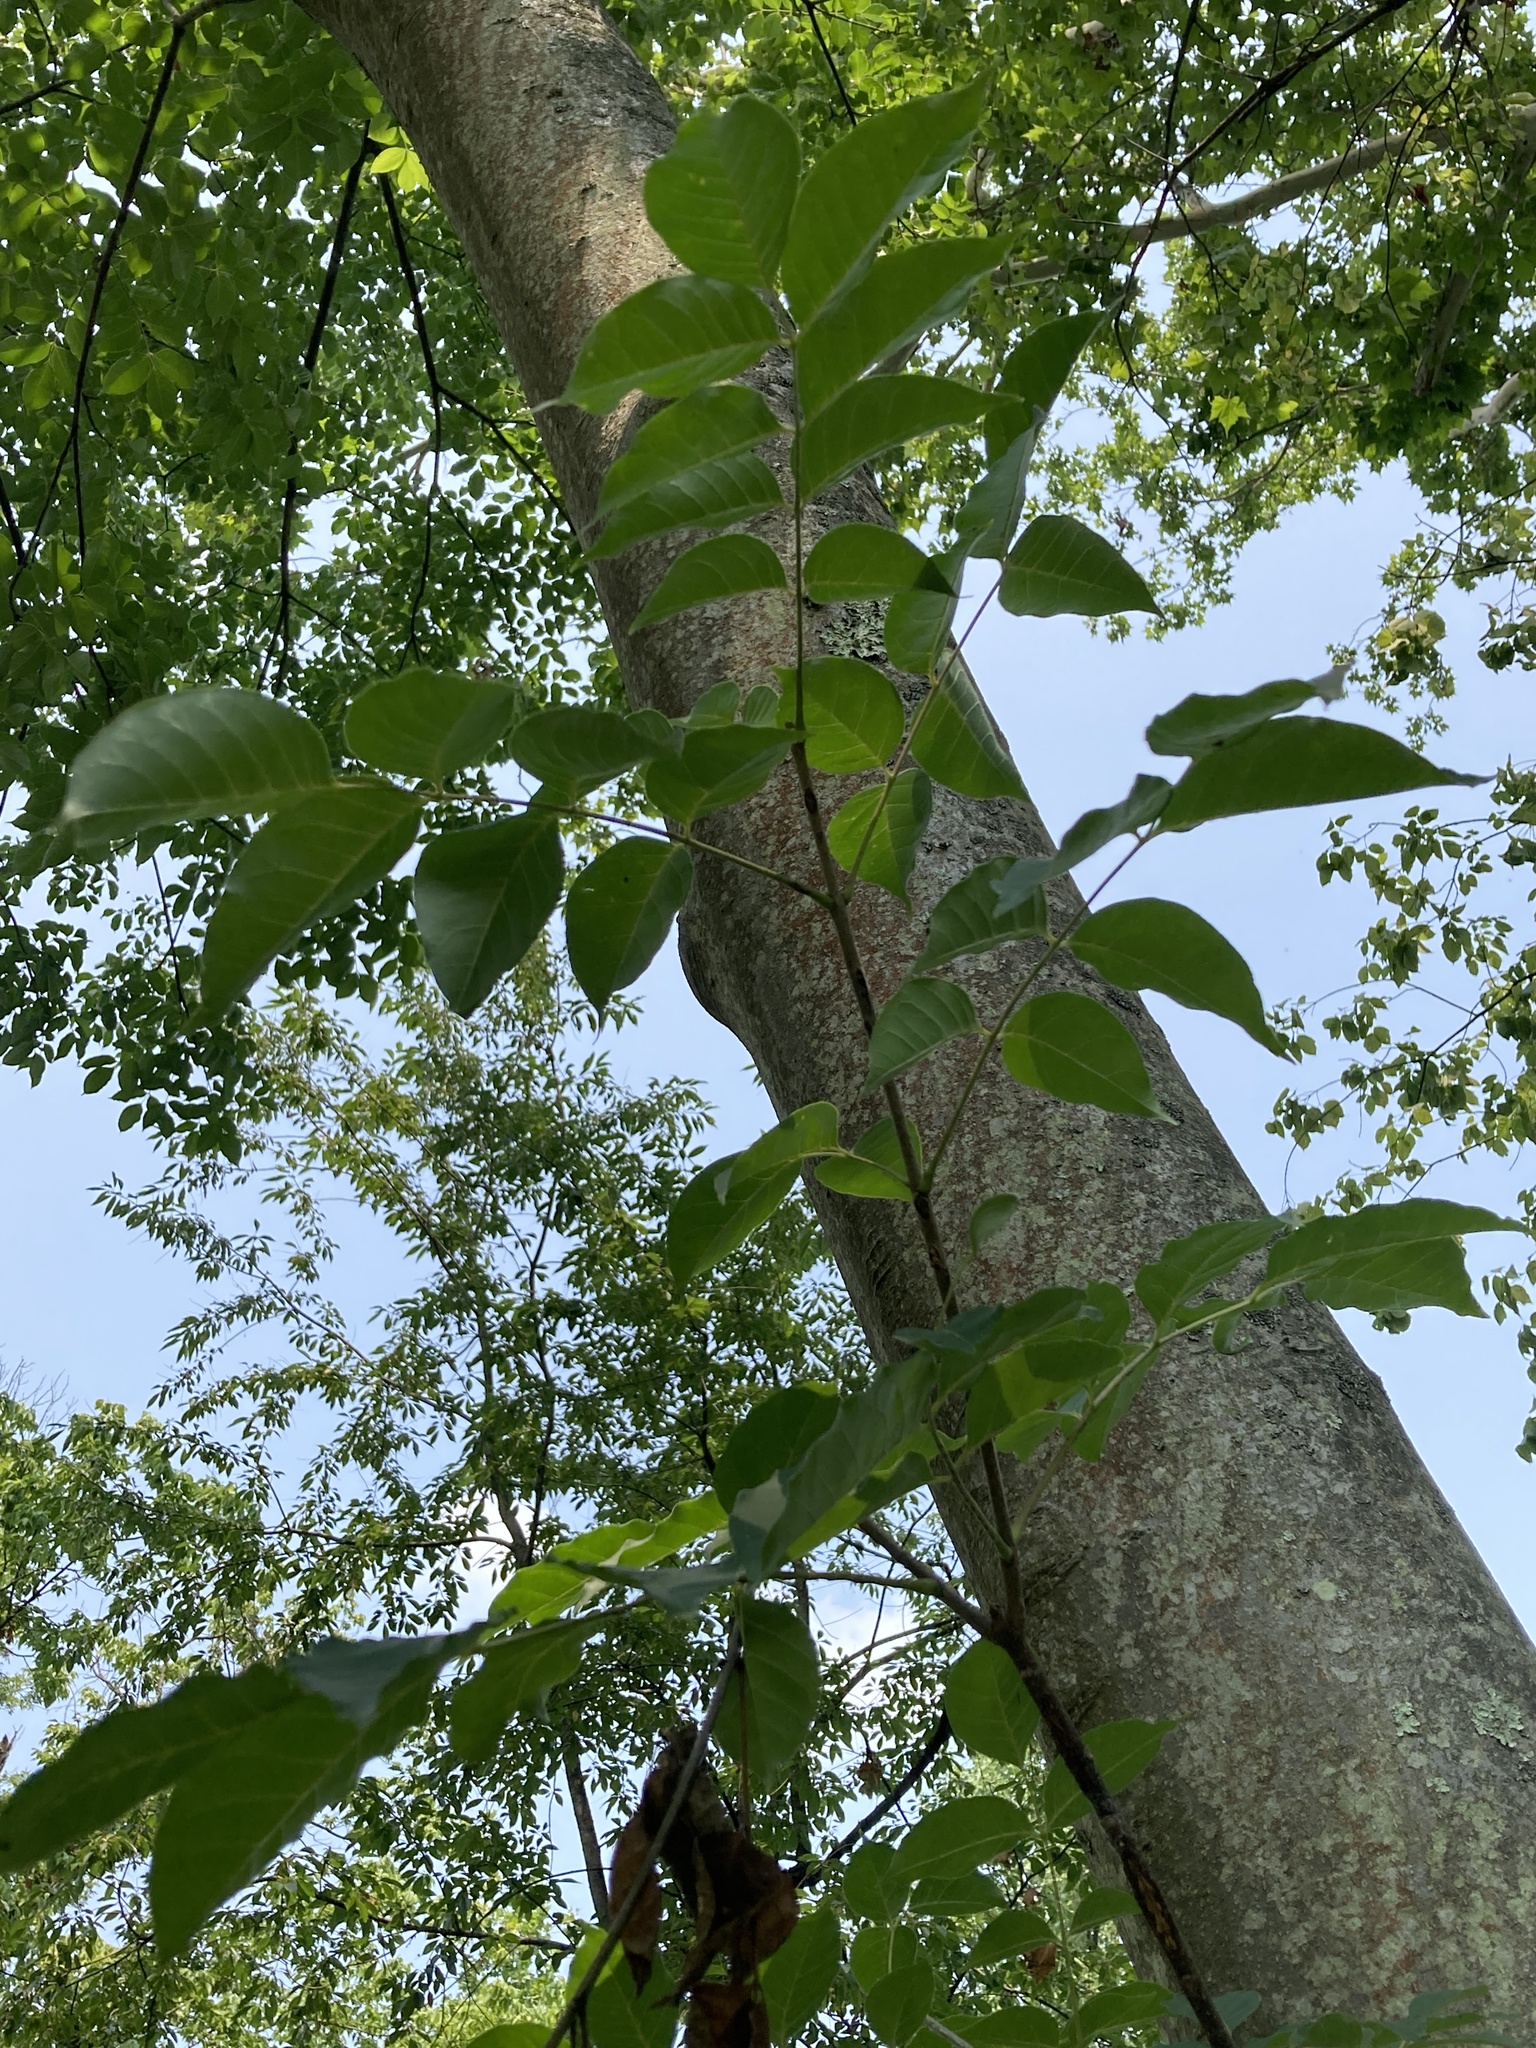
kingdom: Plantae
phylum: Tracheophyta
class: Magnoliopsida
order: Sapindales
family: Rutaceae
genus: Tetradium
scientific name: Tetradium daniellii
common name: Bee-bee tree
